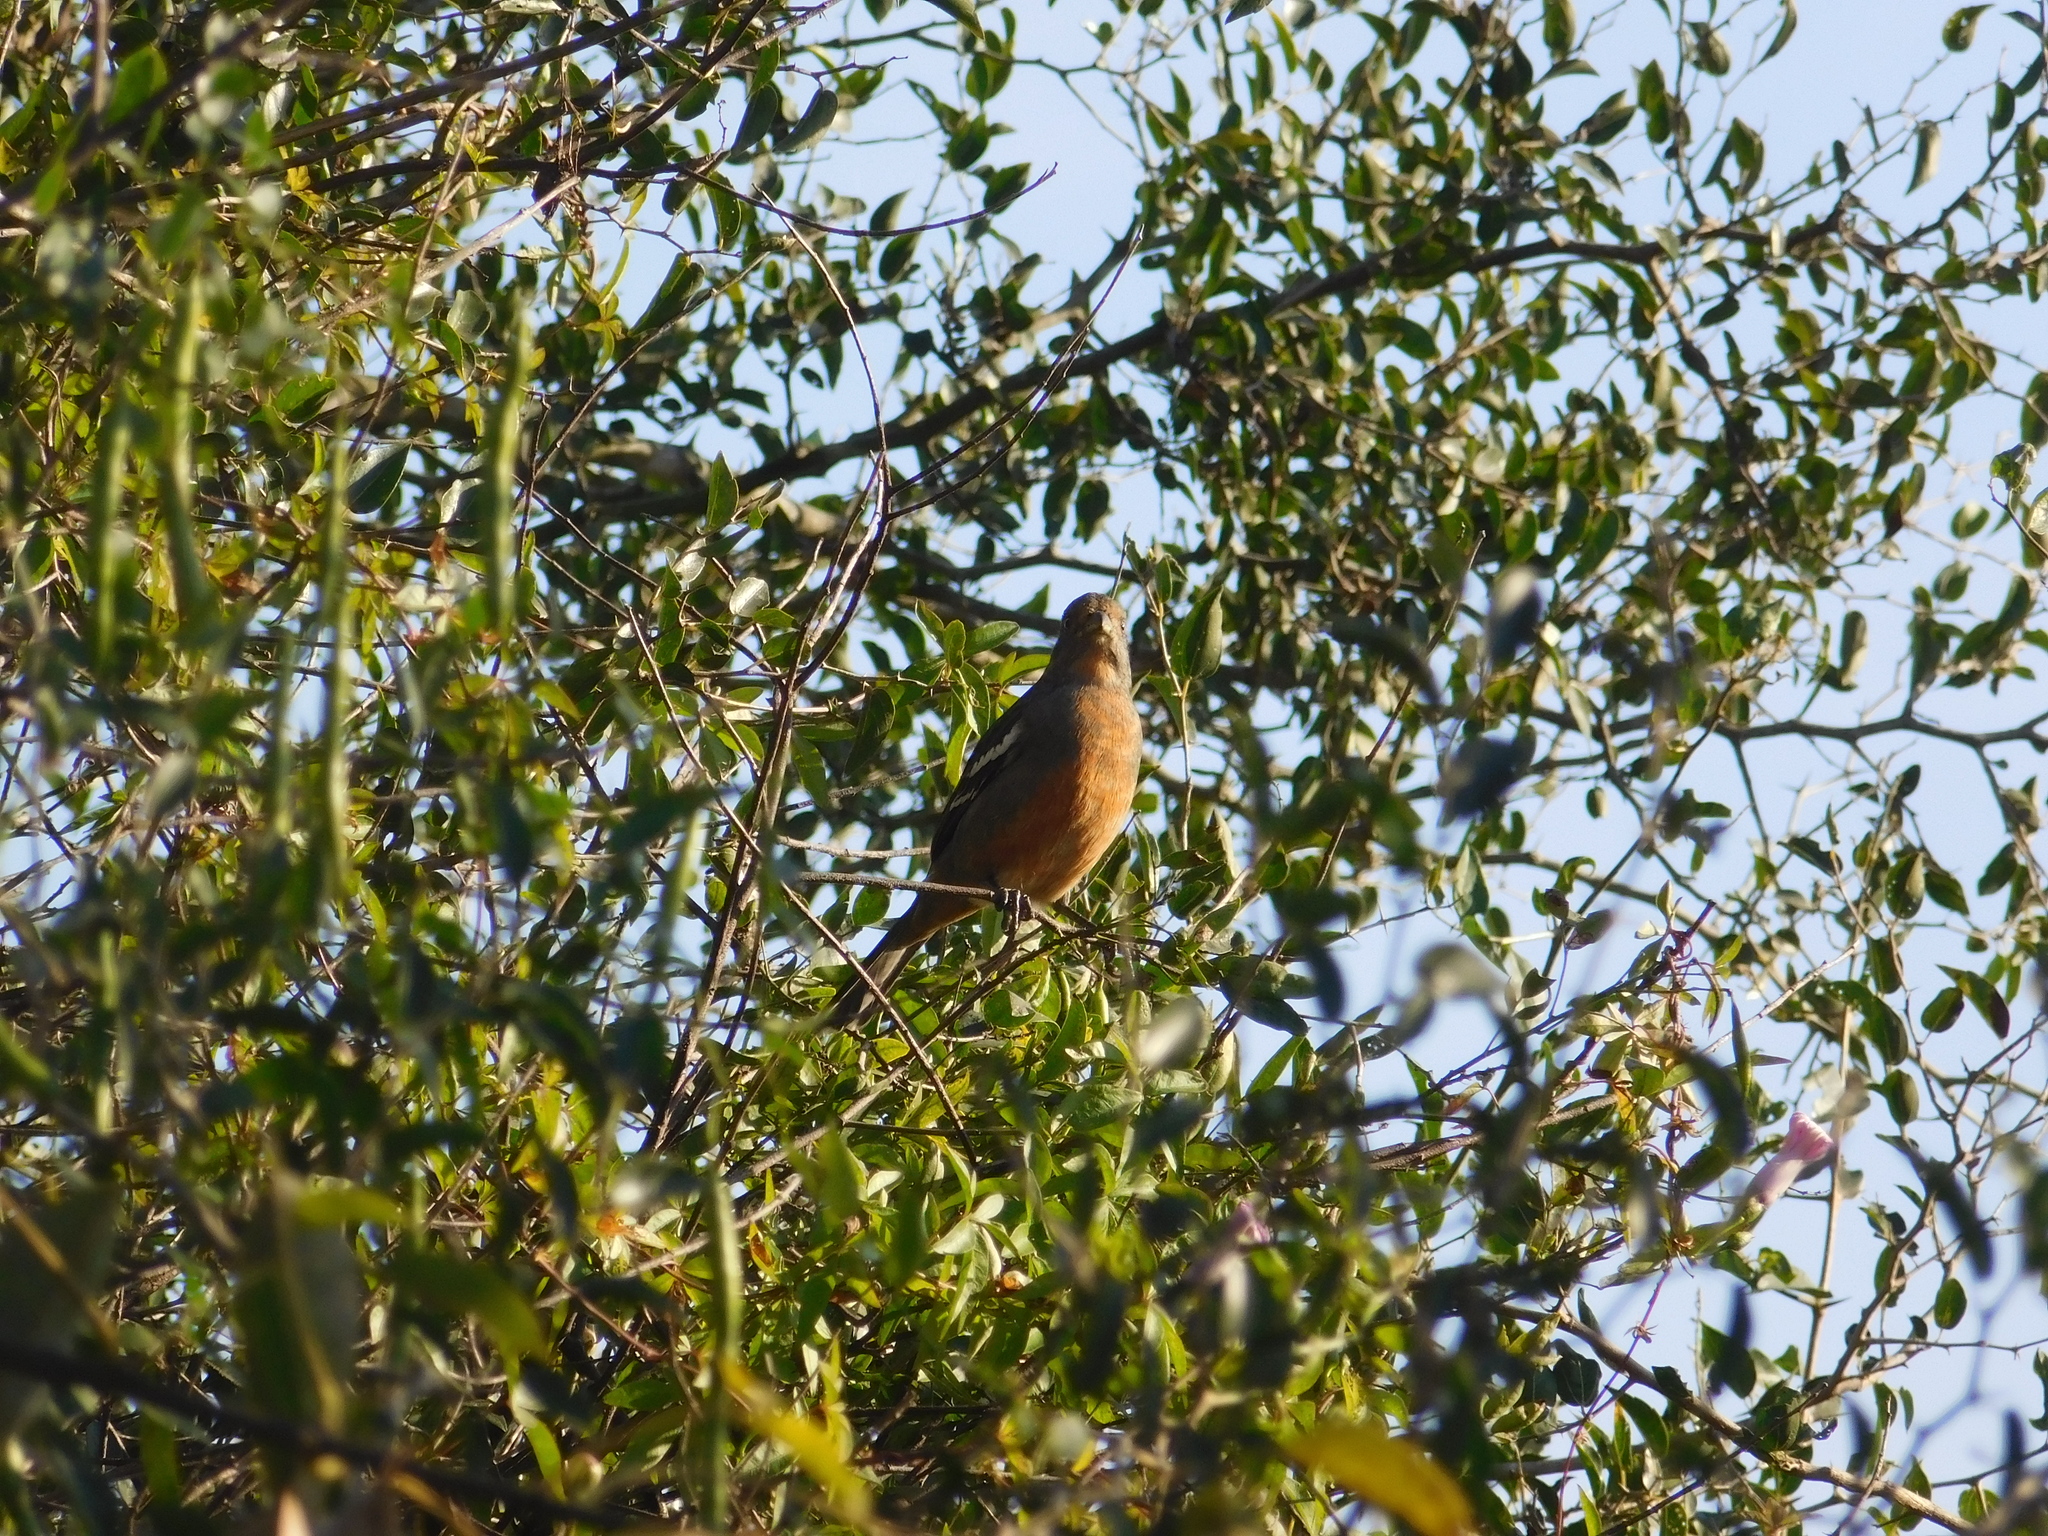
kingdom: Animalia
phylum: Chordata
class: Aves
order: Passeriformes
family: Cotingidae
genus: Phytotoma
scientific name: Phytotoma rutila
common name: White-tipped plantcutter
